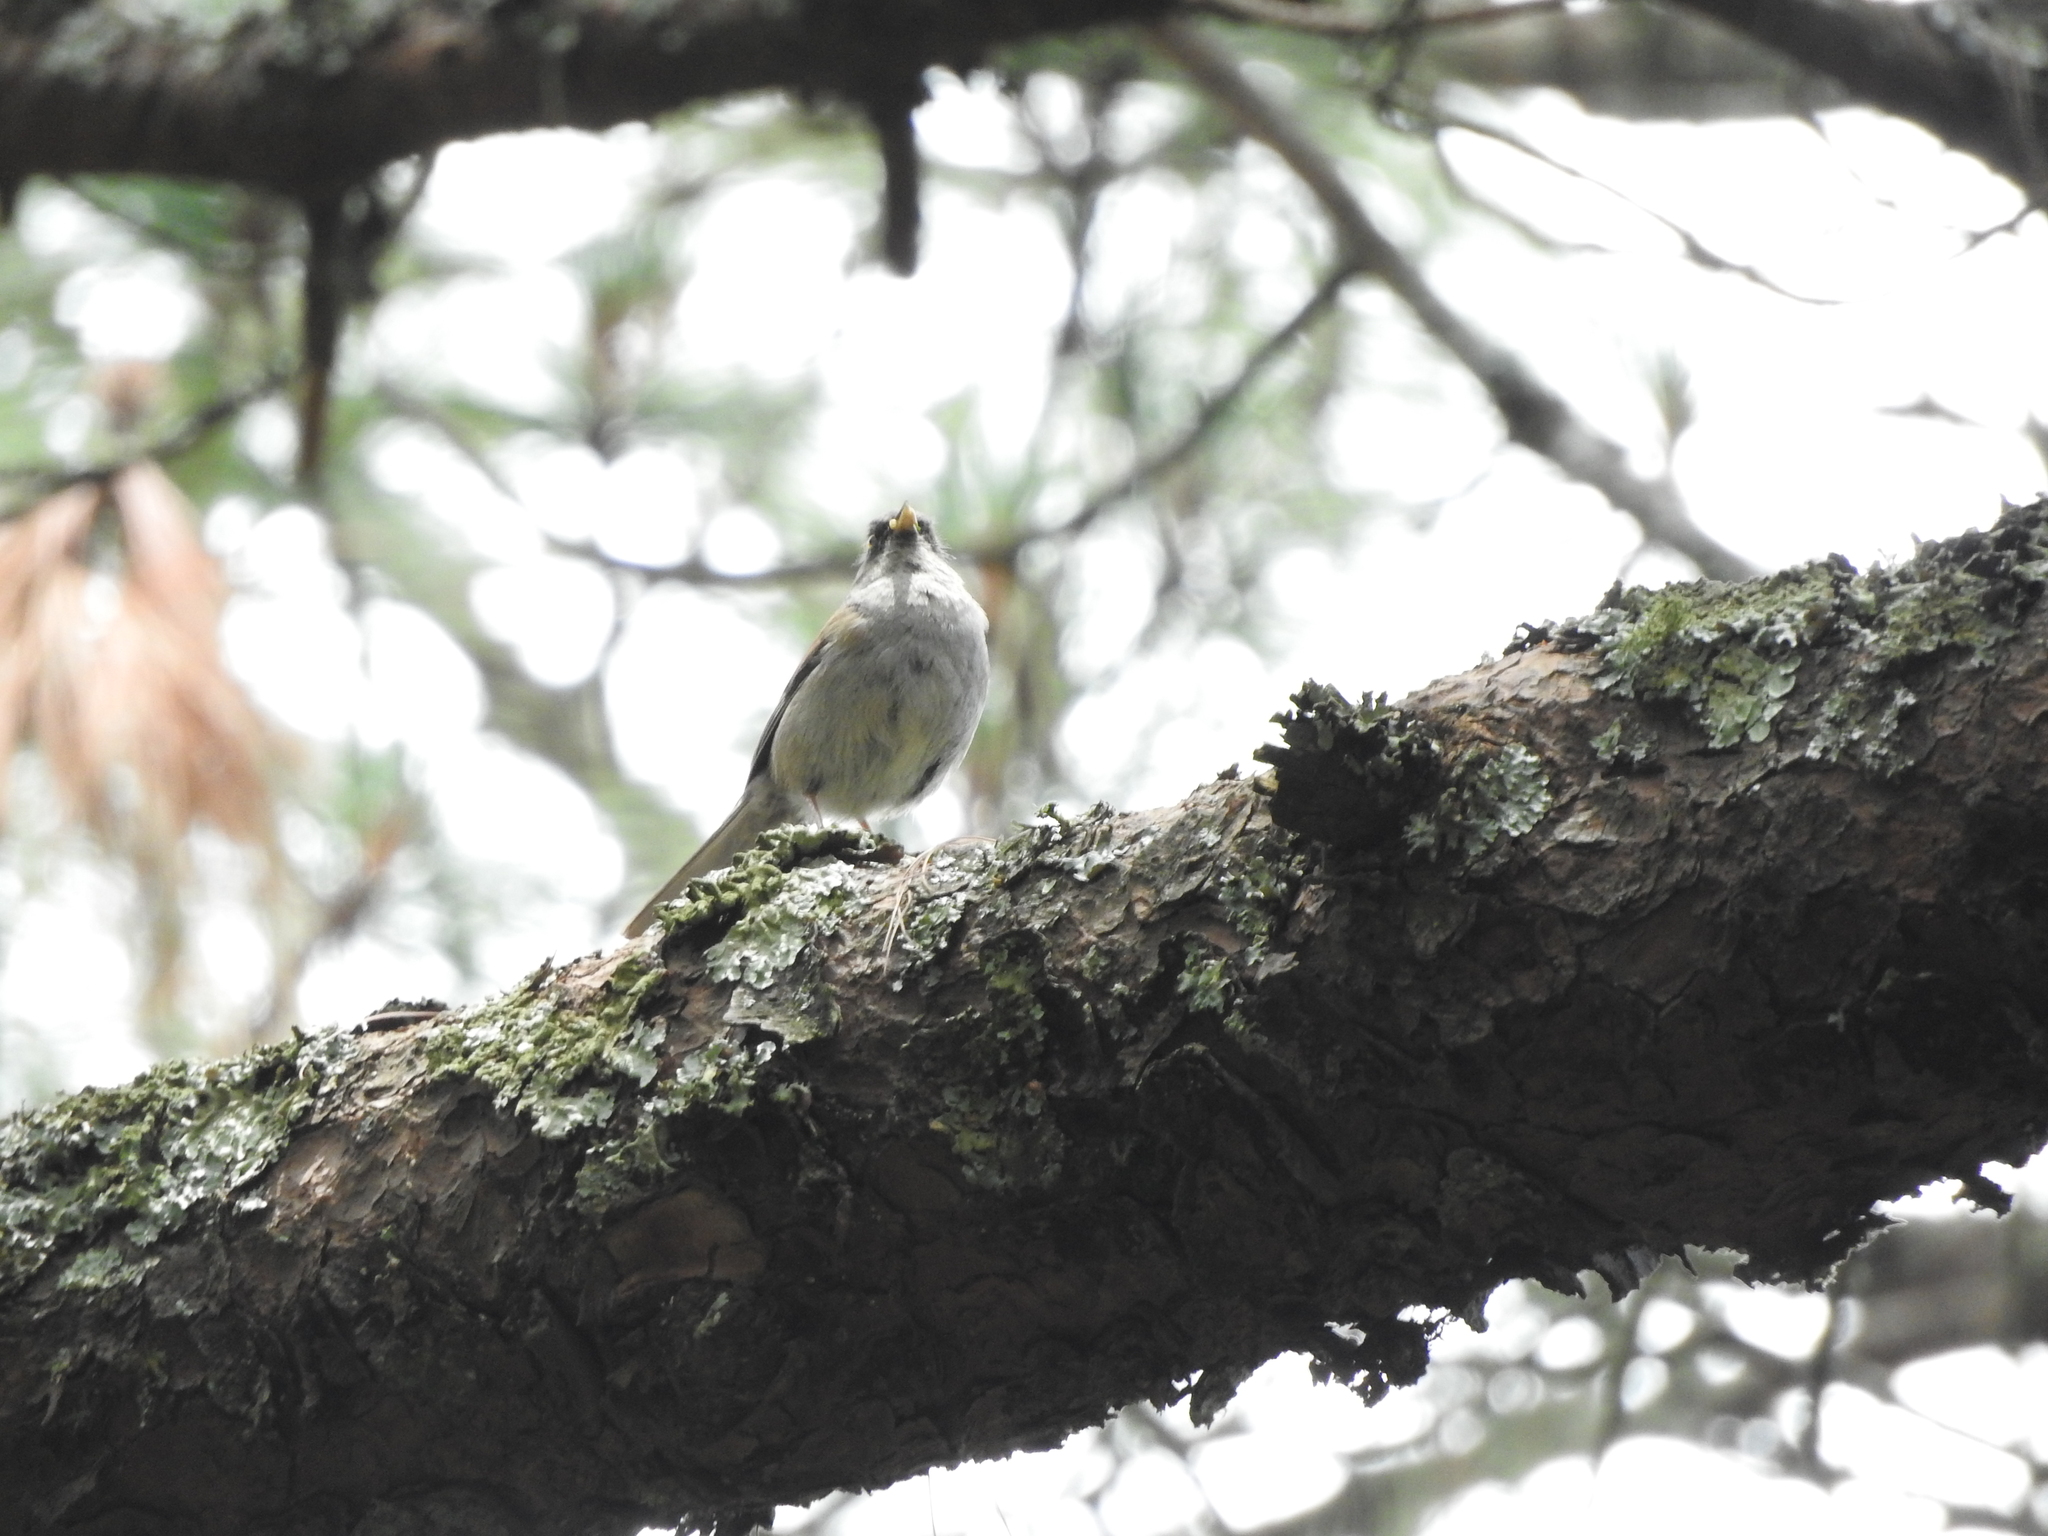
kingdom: Animalia
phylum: Chordata
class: Aves
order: Passeriformes
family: Passerellidae
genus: Junco
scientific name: Junco phaeonotus
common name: Yellow-eyed junco
